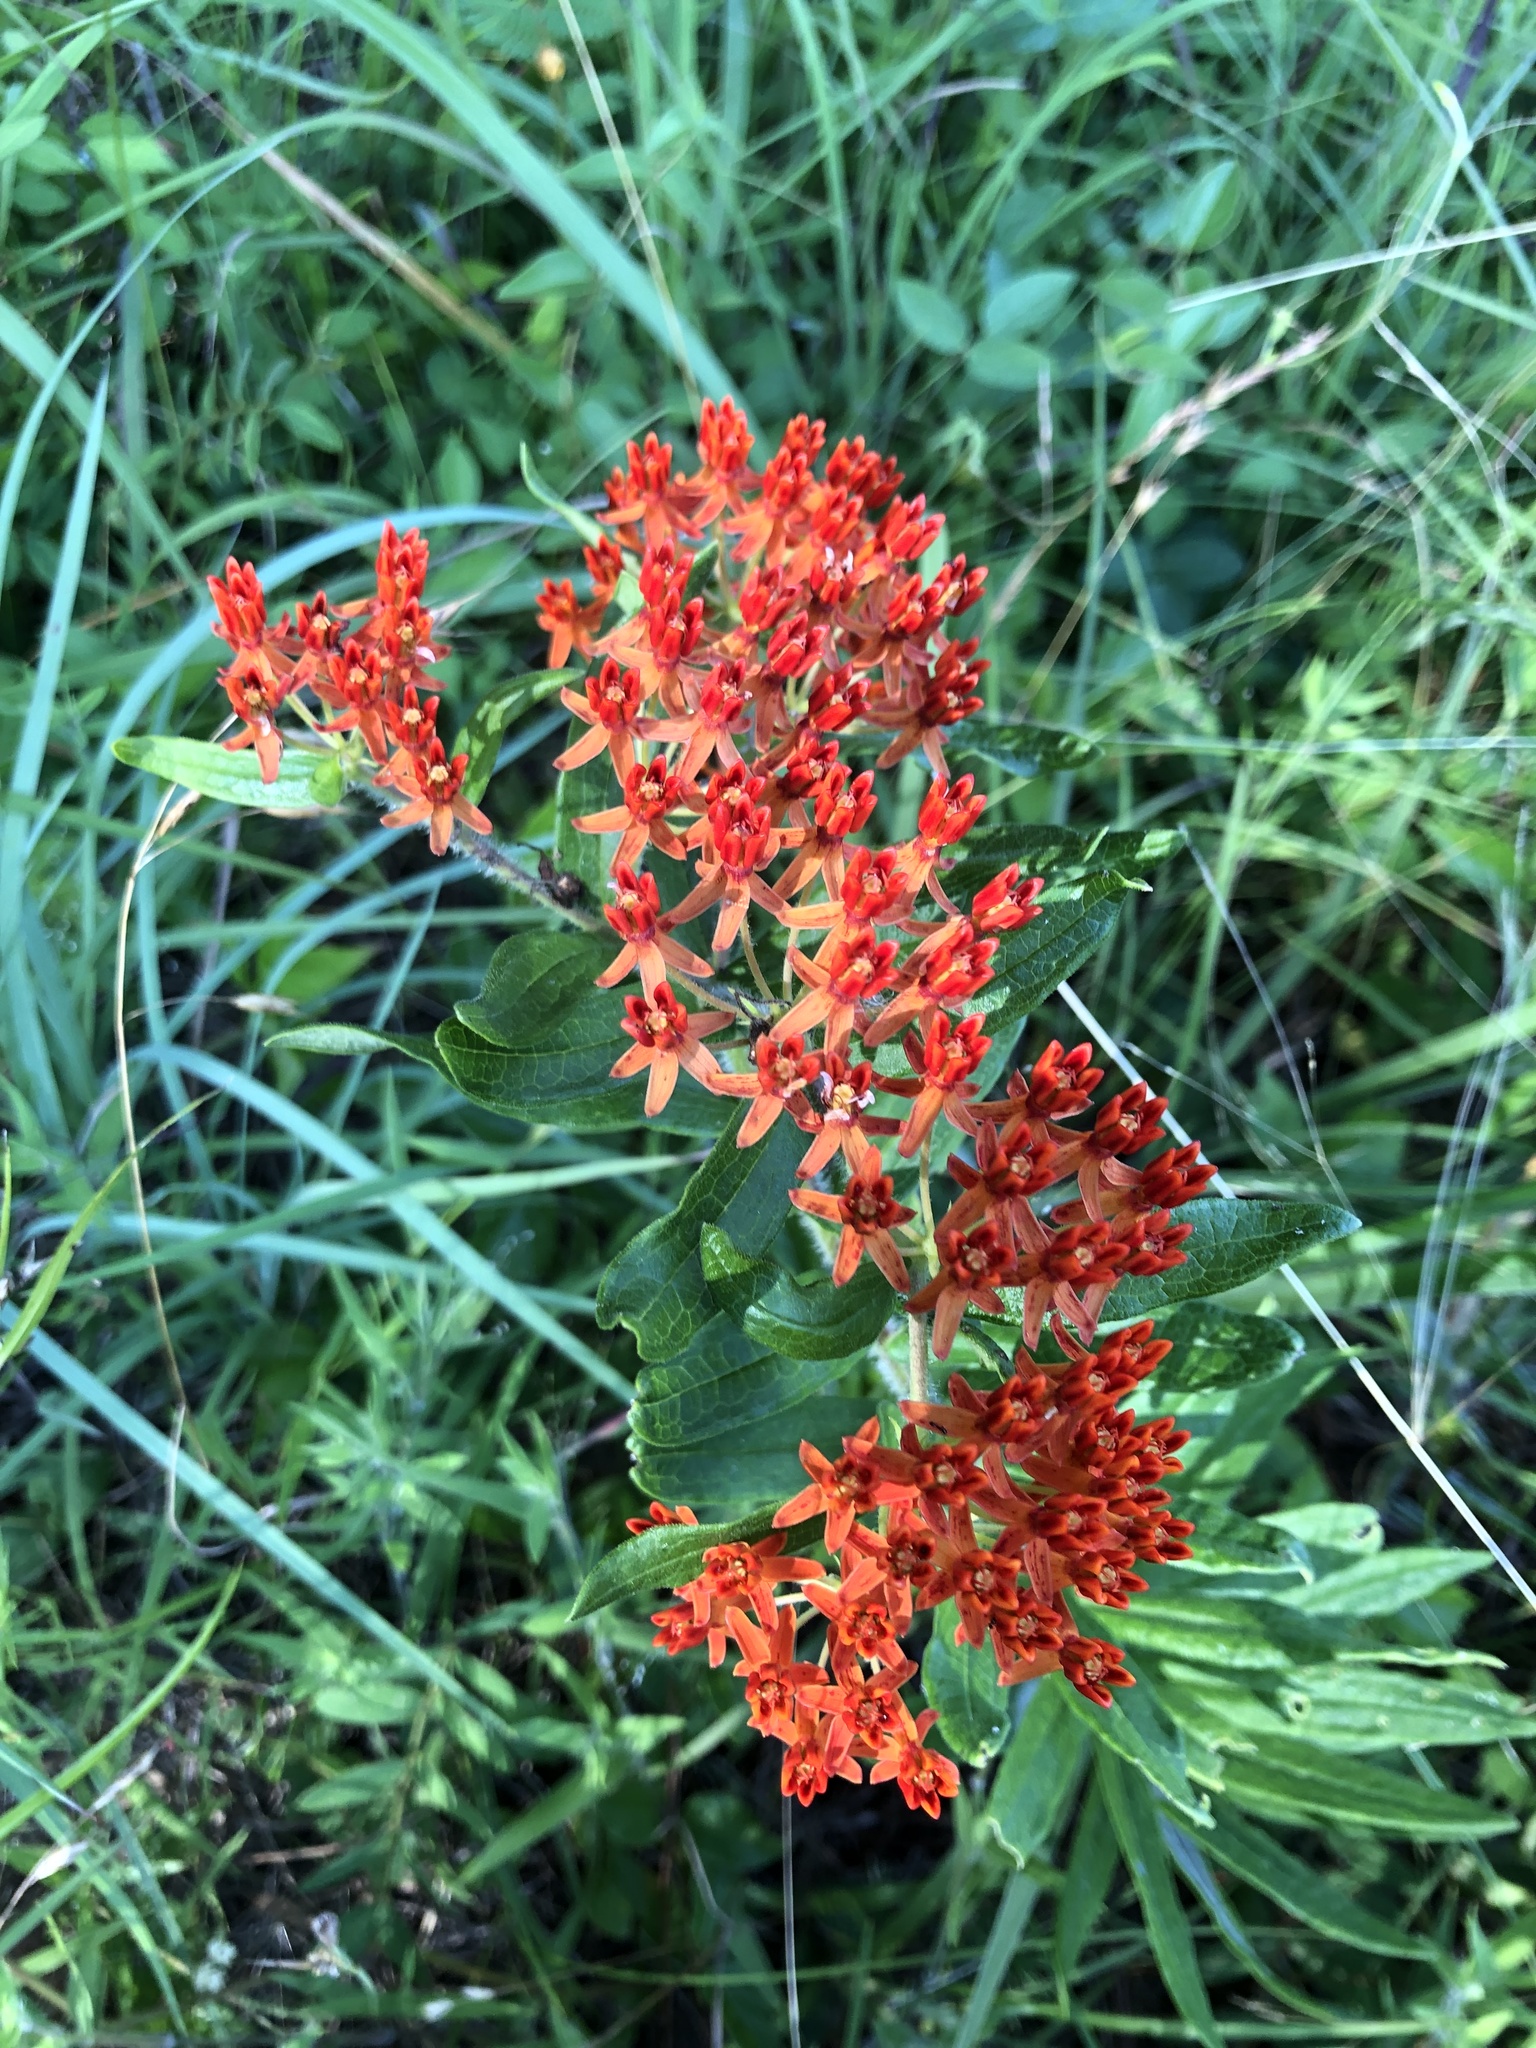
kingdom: Plantae
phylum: Tracheophyta
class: Magnoliopsida
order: Gentianales
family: Apocynaceae
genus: Asclepias
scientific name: Asclepias tuberosa
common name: Butterfly milkweed
